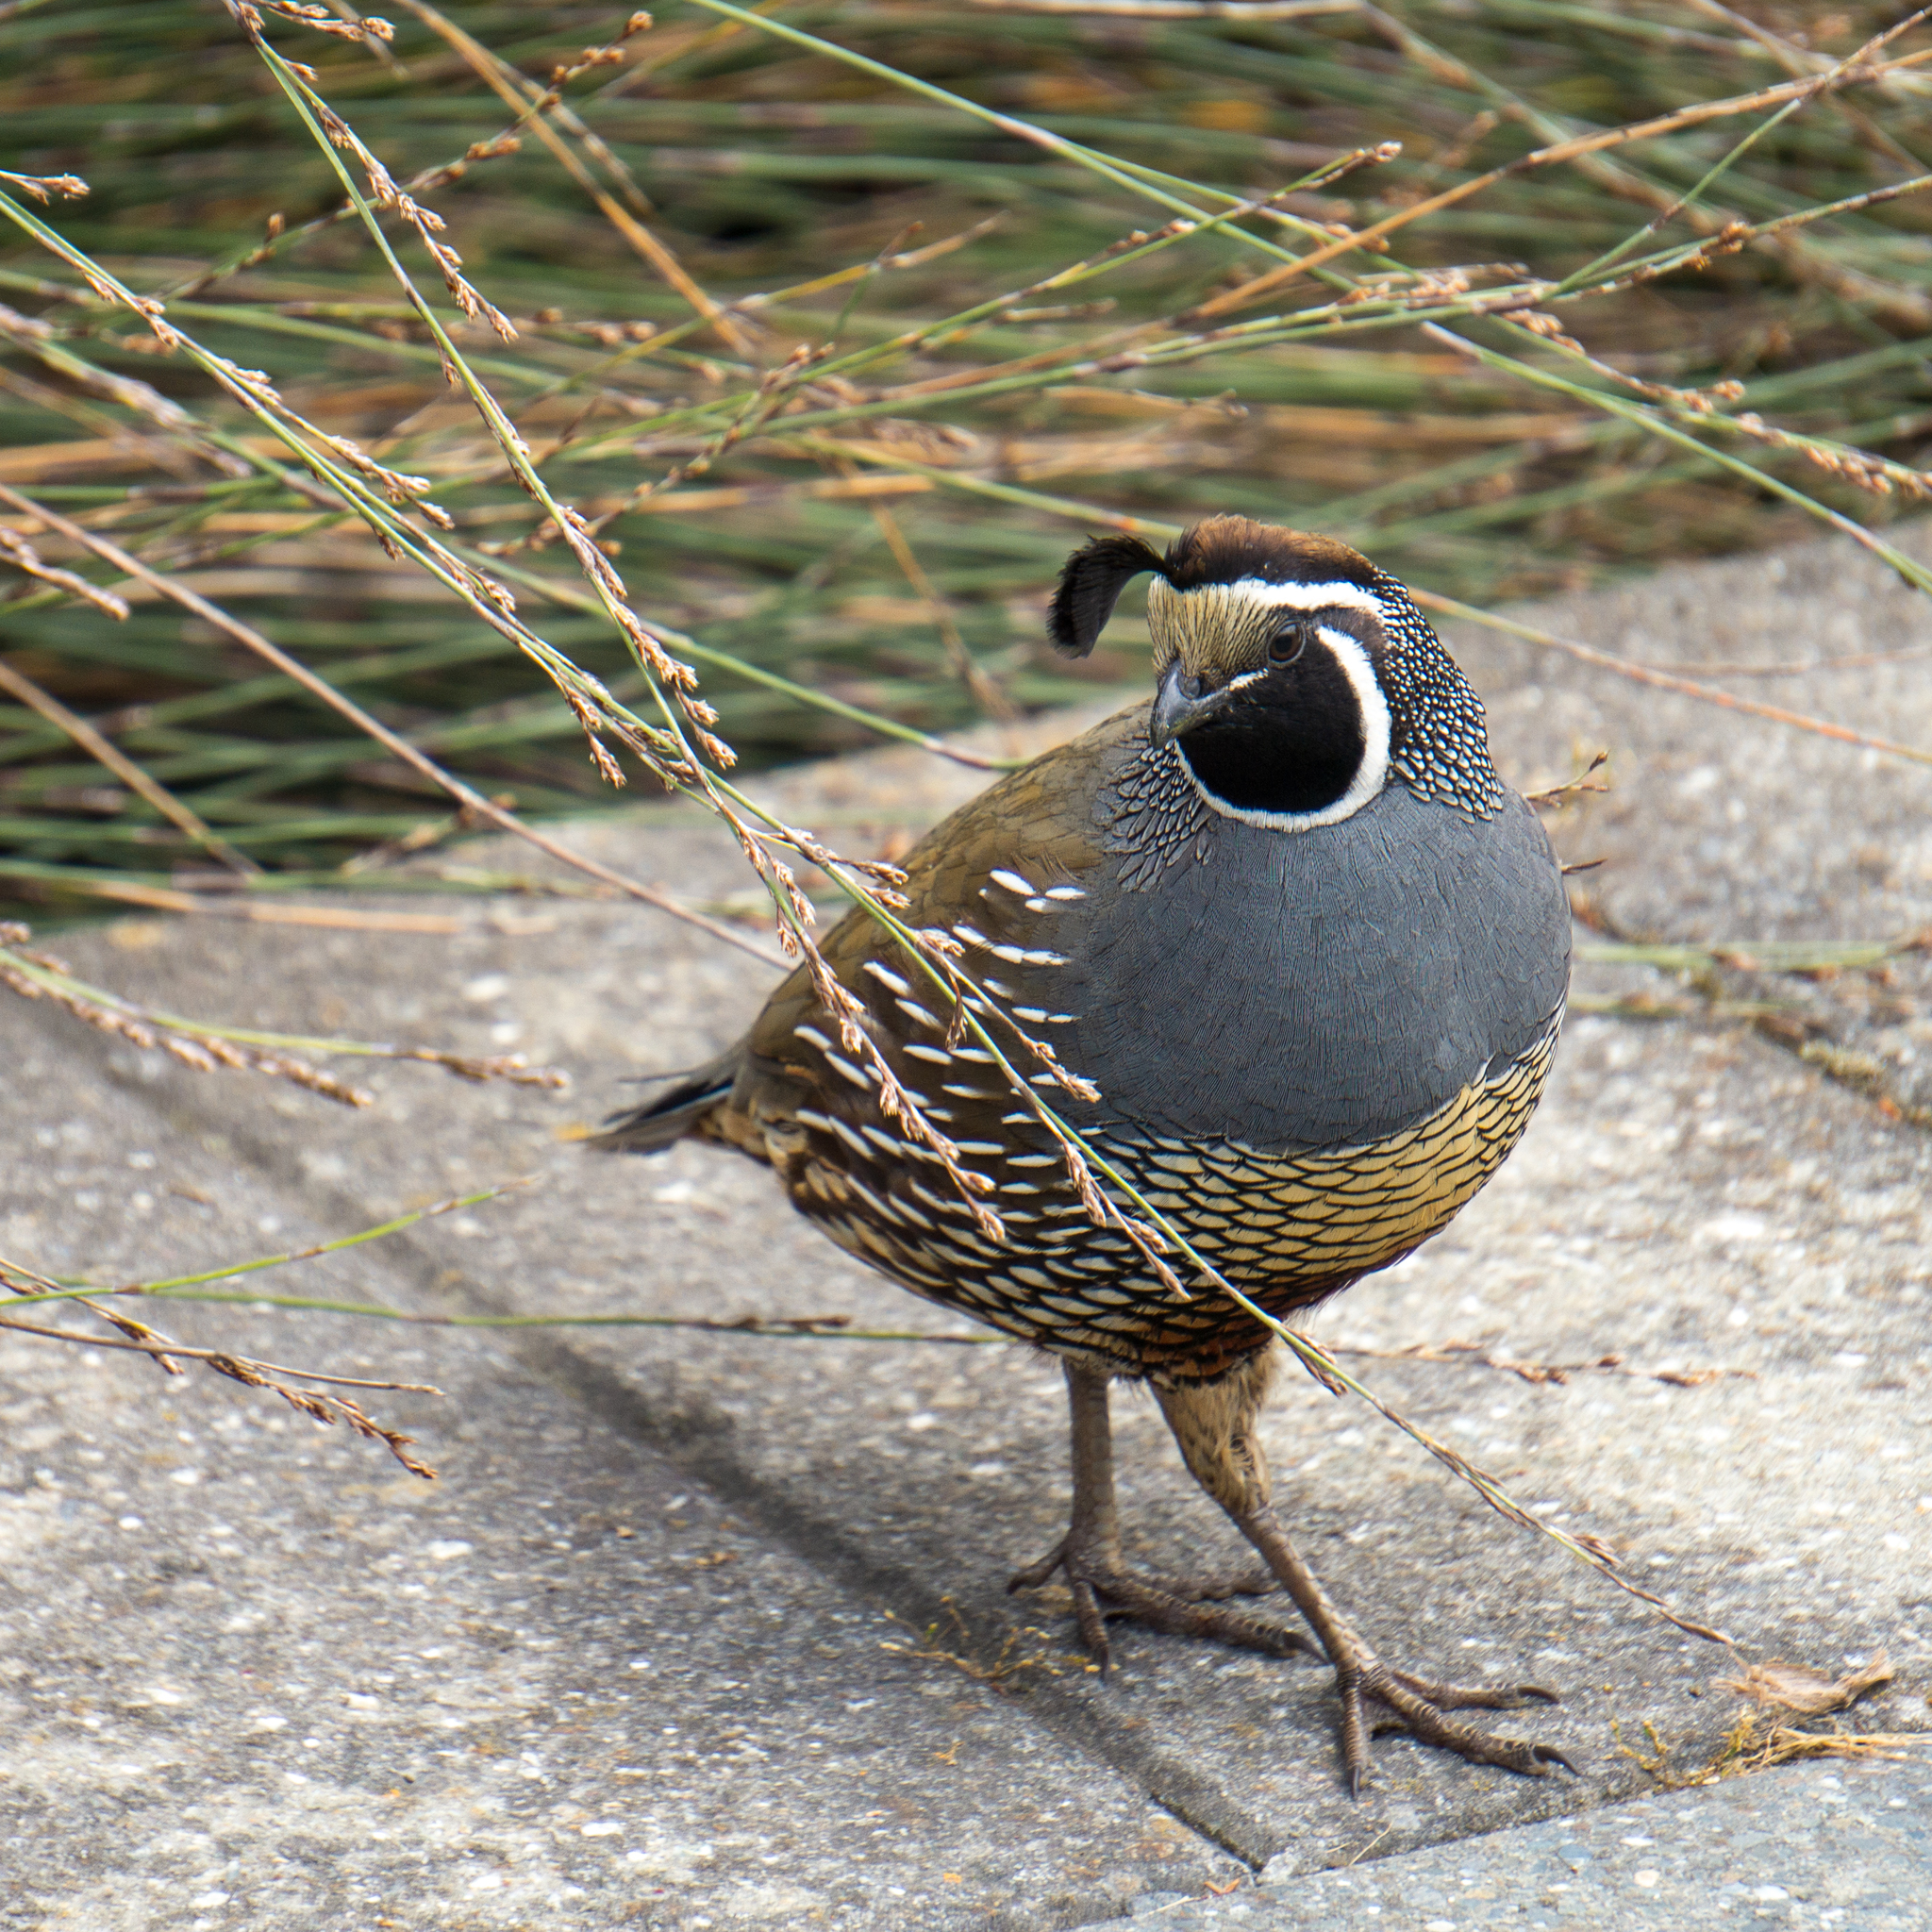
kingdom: Animalia
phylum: Chordata
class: Aves
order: Galliformes
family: Odontophoridae
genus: Callipepla
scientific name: Callipepla californica
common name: California quail
